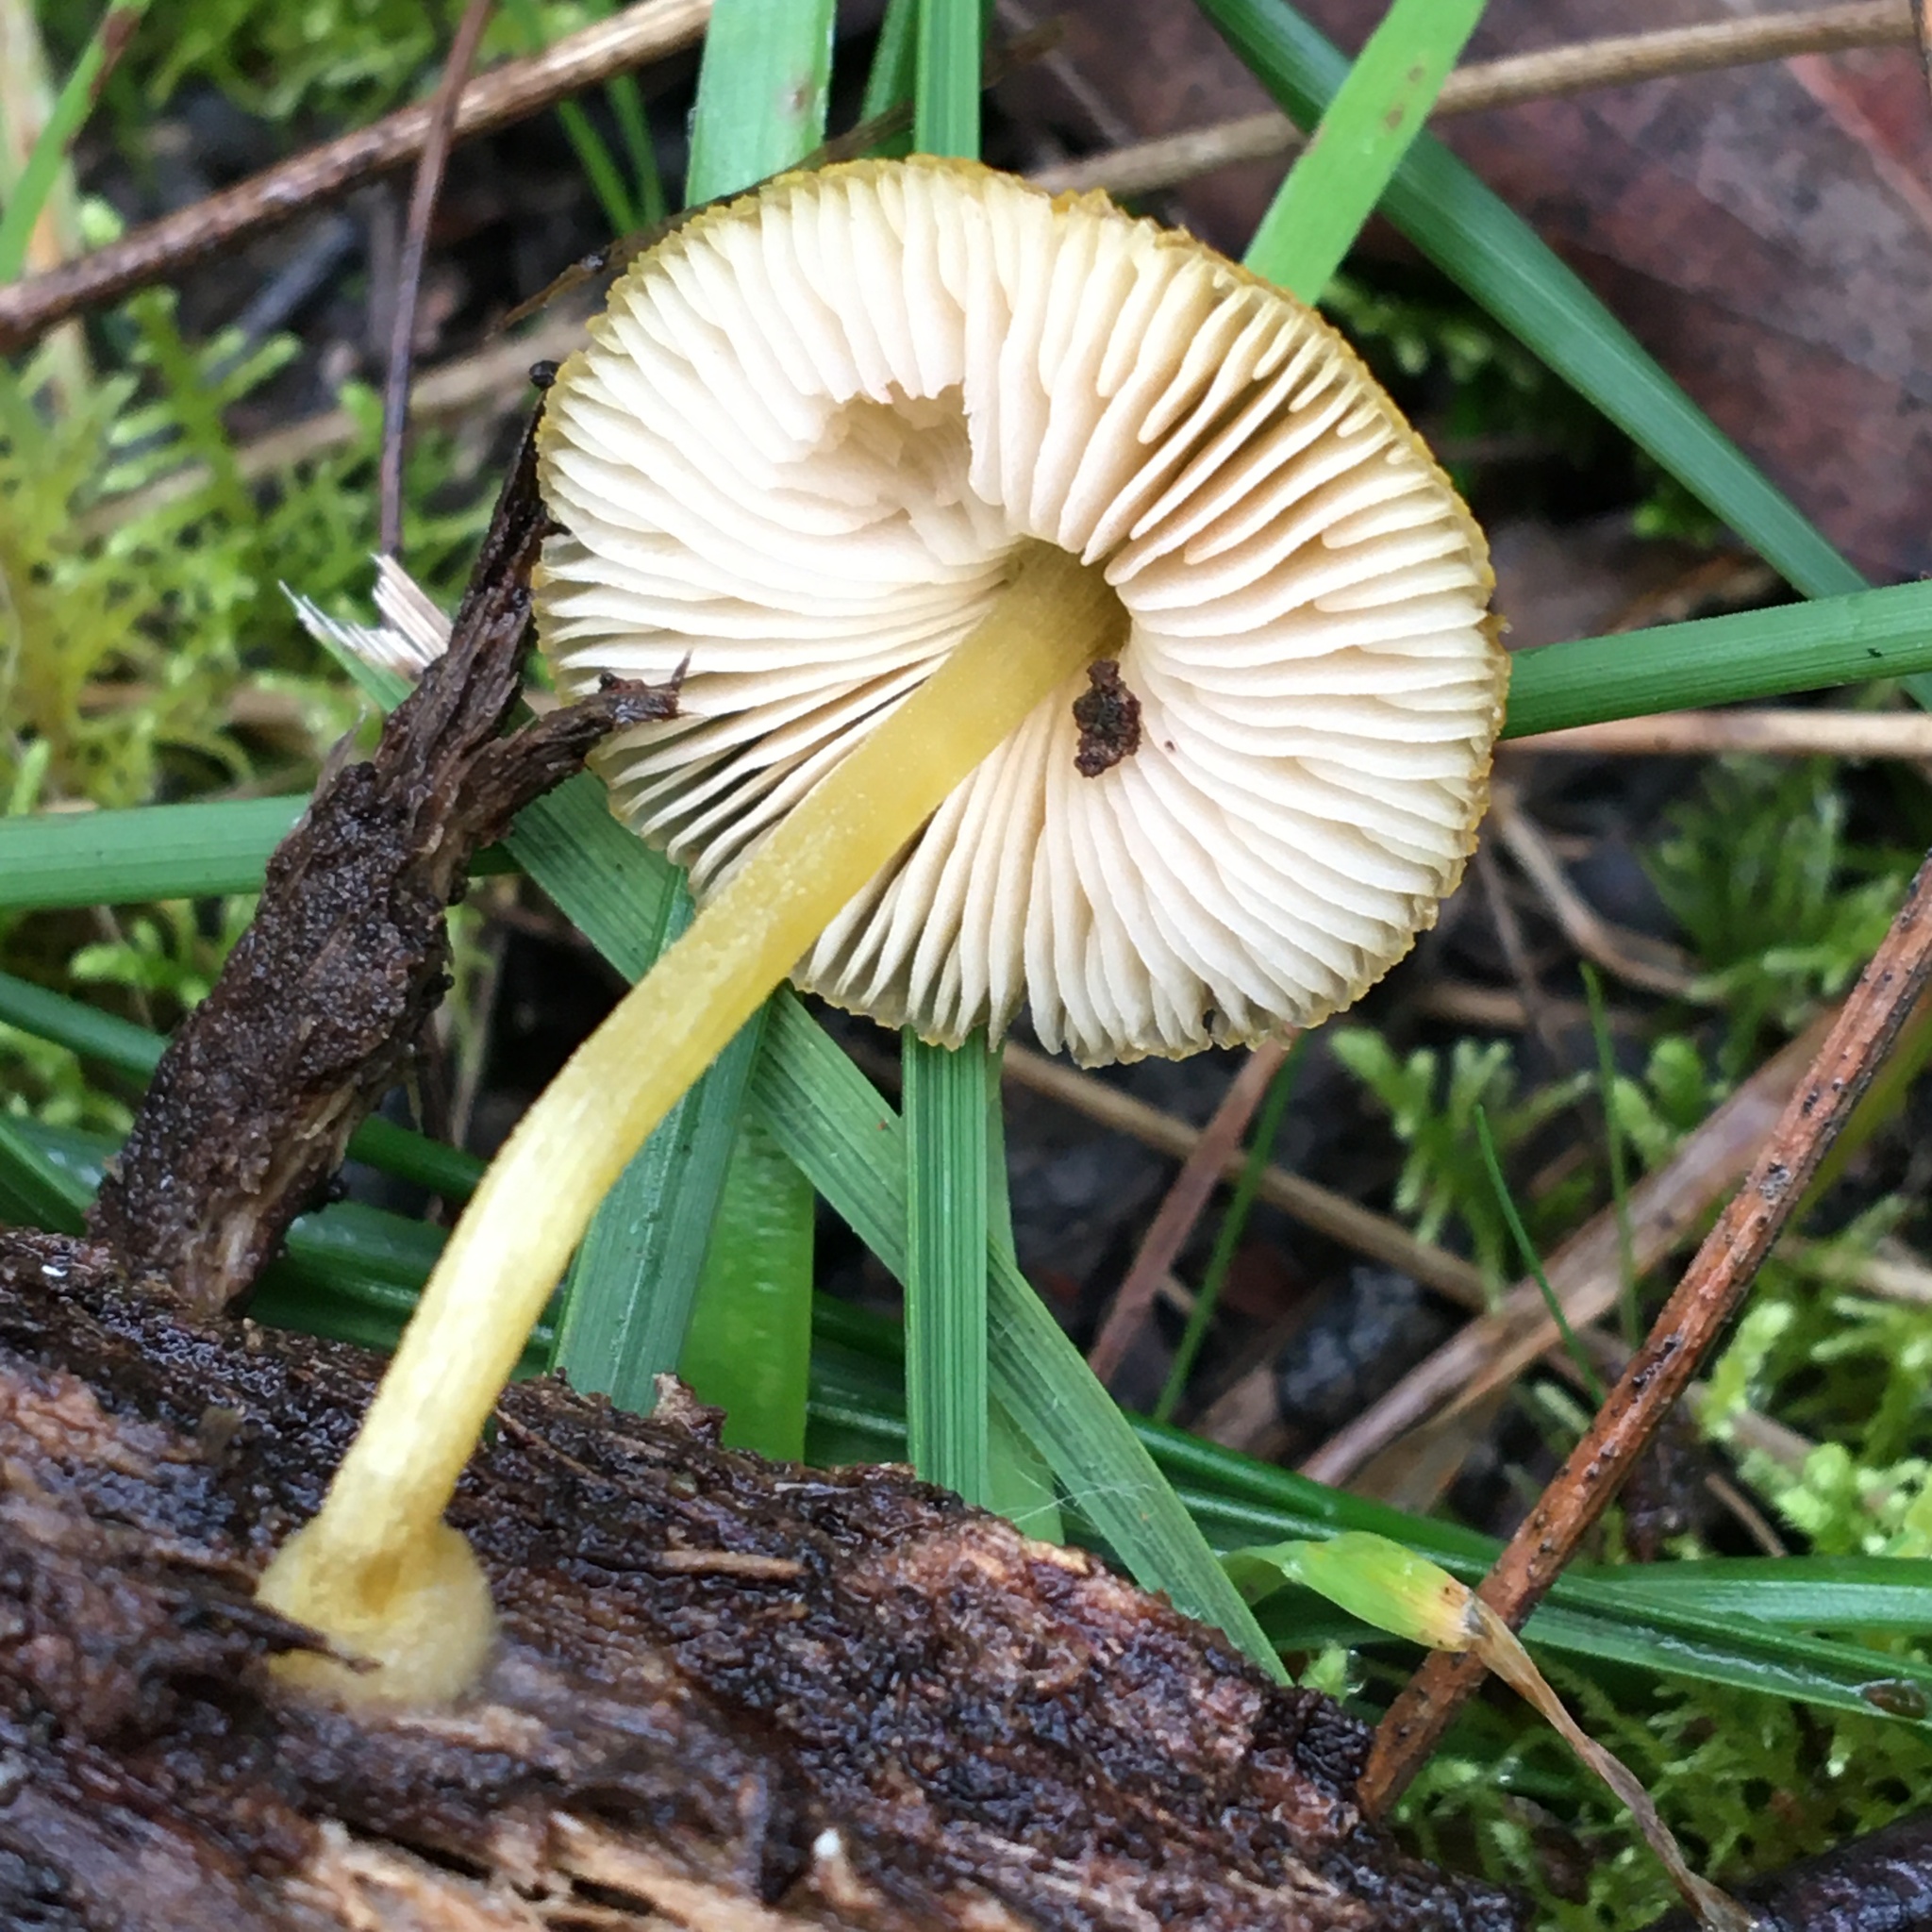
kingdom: Fungi
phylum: Basidiomycota
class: Agaricomycetes
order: Agaricales
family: Pluteaceae
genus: Pluteus
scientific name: Pluteus hubregtseorum
